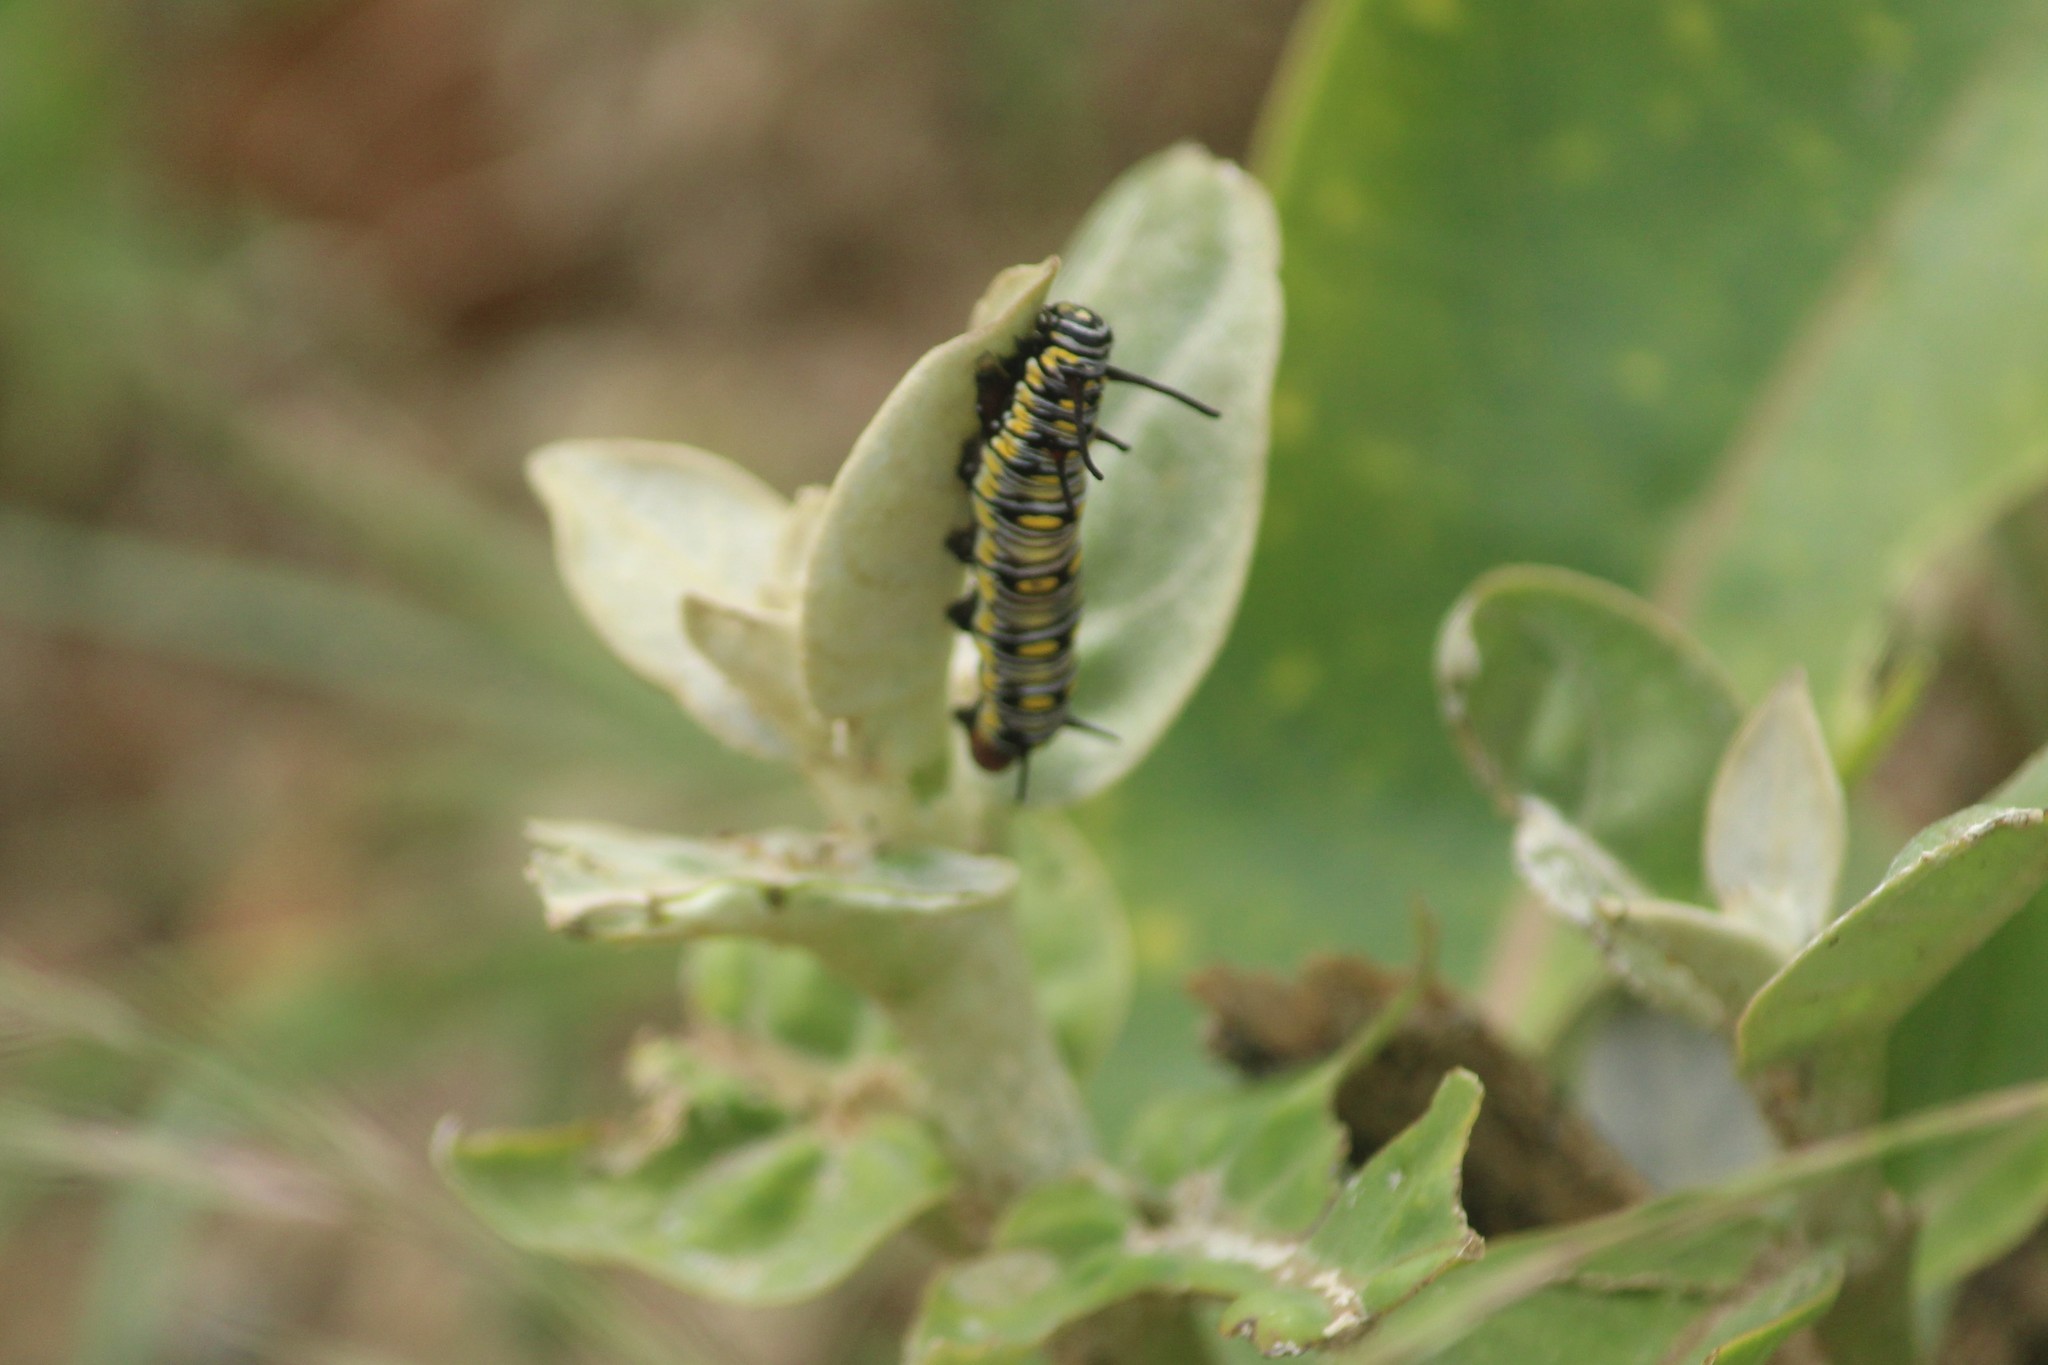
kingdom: Animalia
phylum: Arthropoda
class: Insecta
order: Lepidoptera
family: Nymphalidae
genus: Danaus
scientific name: Danaus chrysippus
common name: Plain tiger
